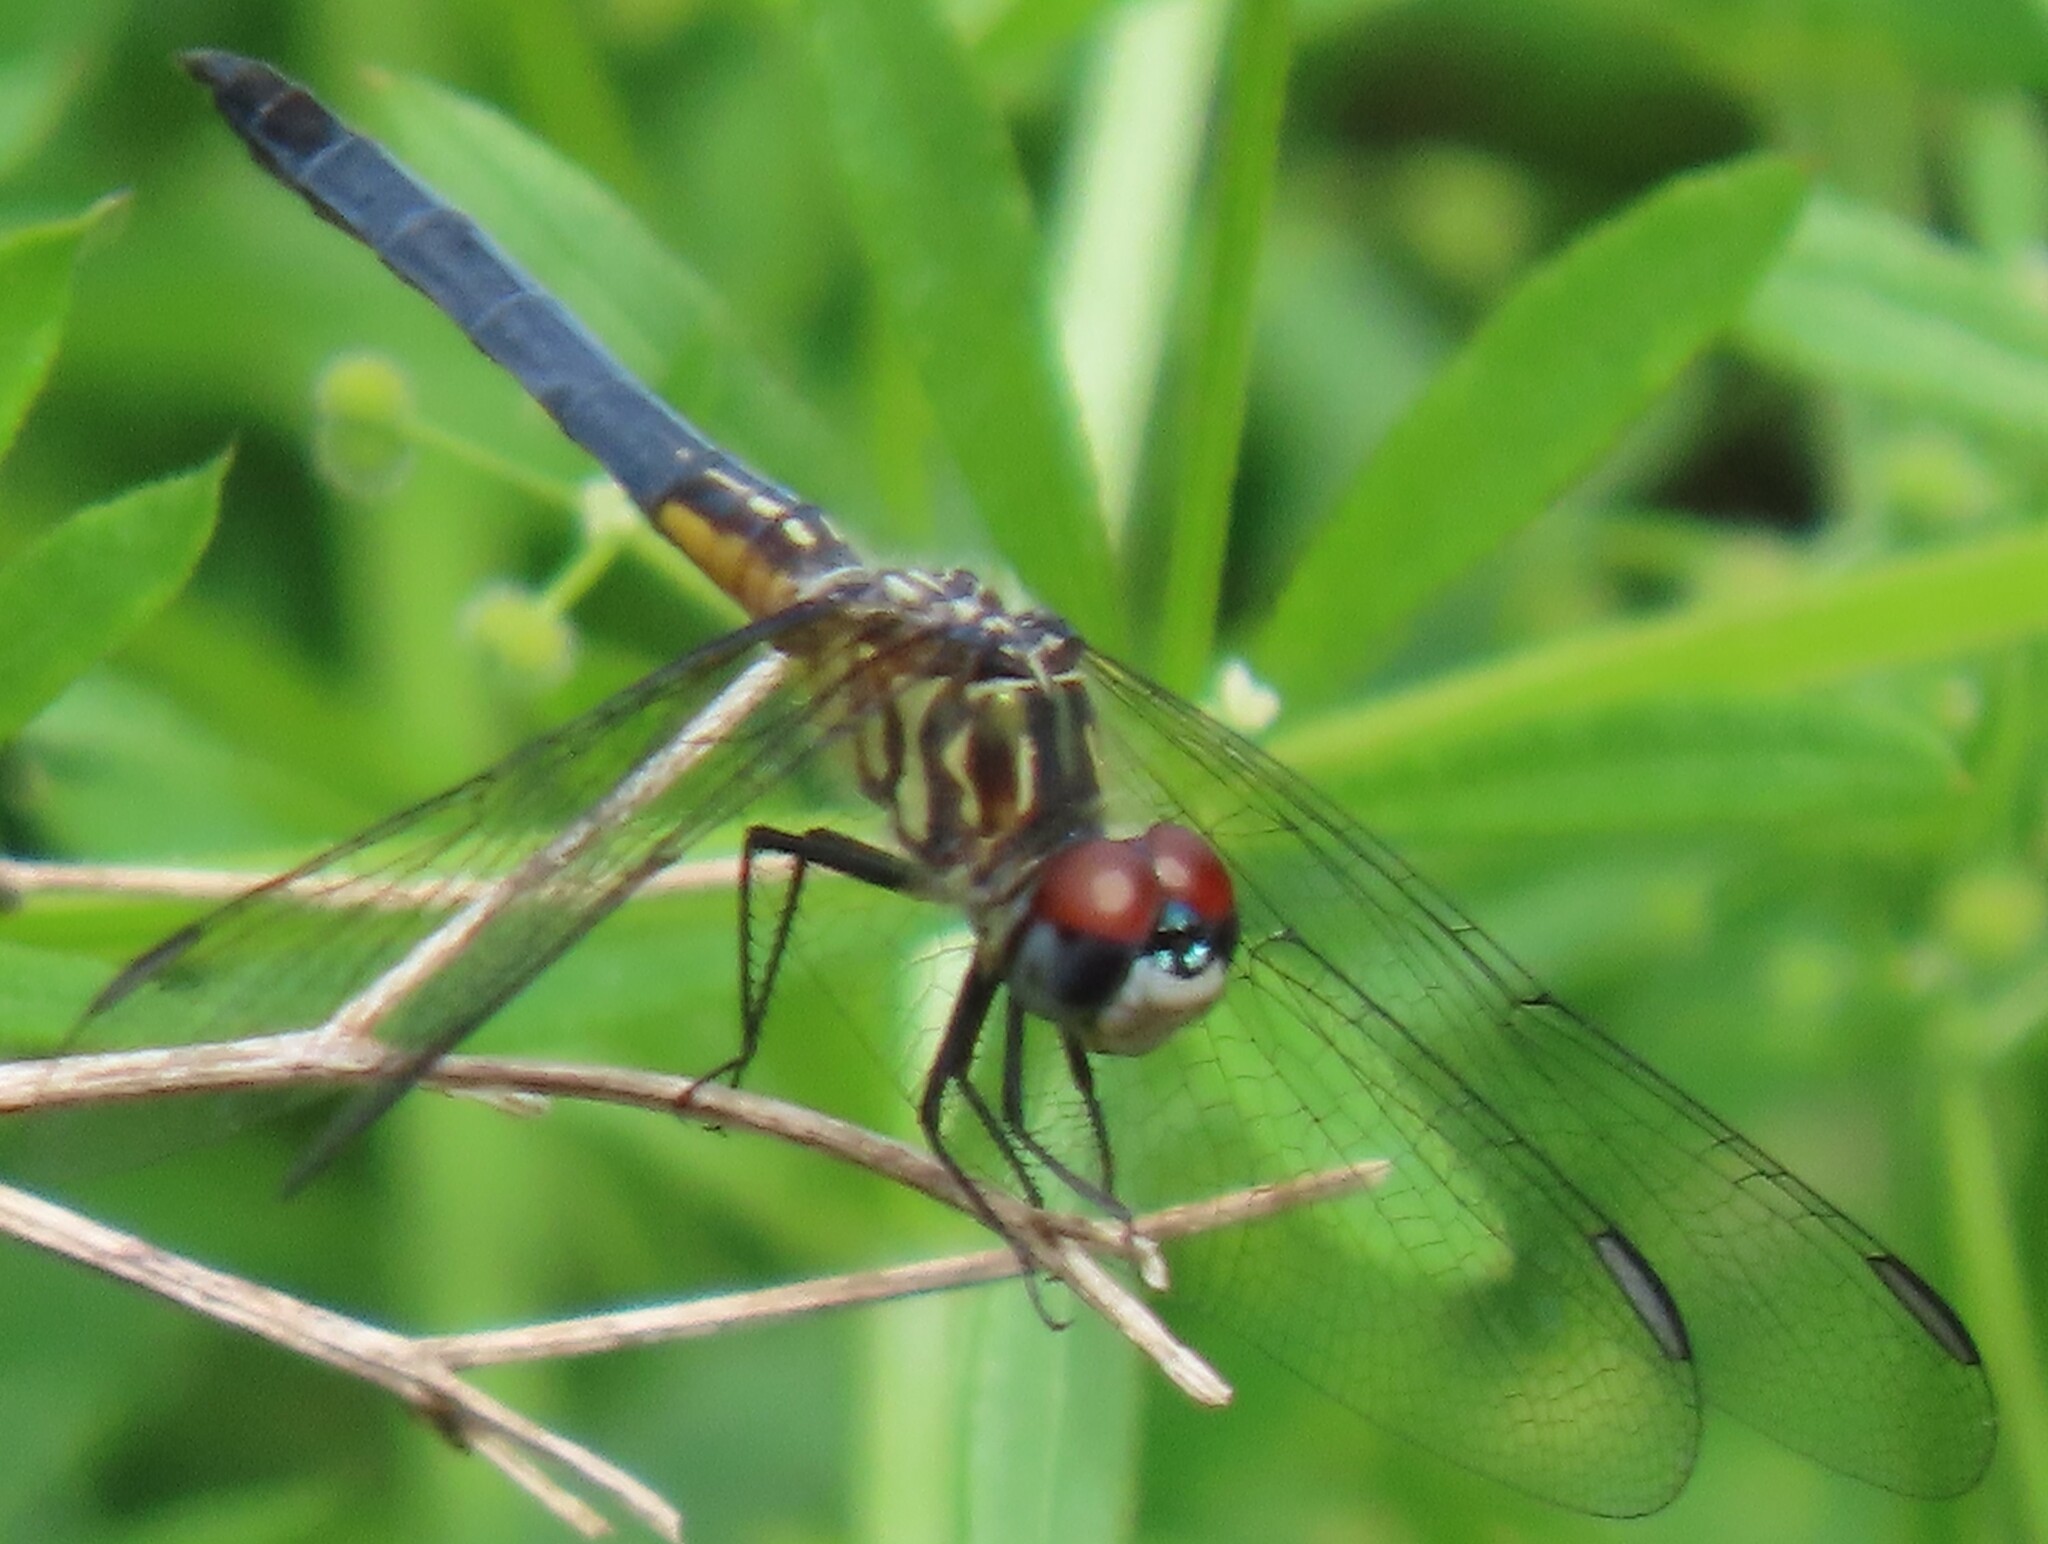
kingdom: Animalia
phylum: Arthropoda
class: Insecta
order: Odonata
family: Libellulidae
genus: Pachydiplax
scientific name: Pachydiplax longipennis
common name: Blue dasher
